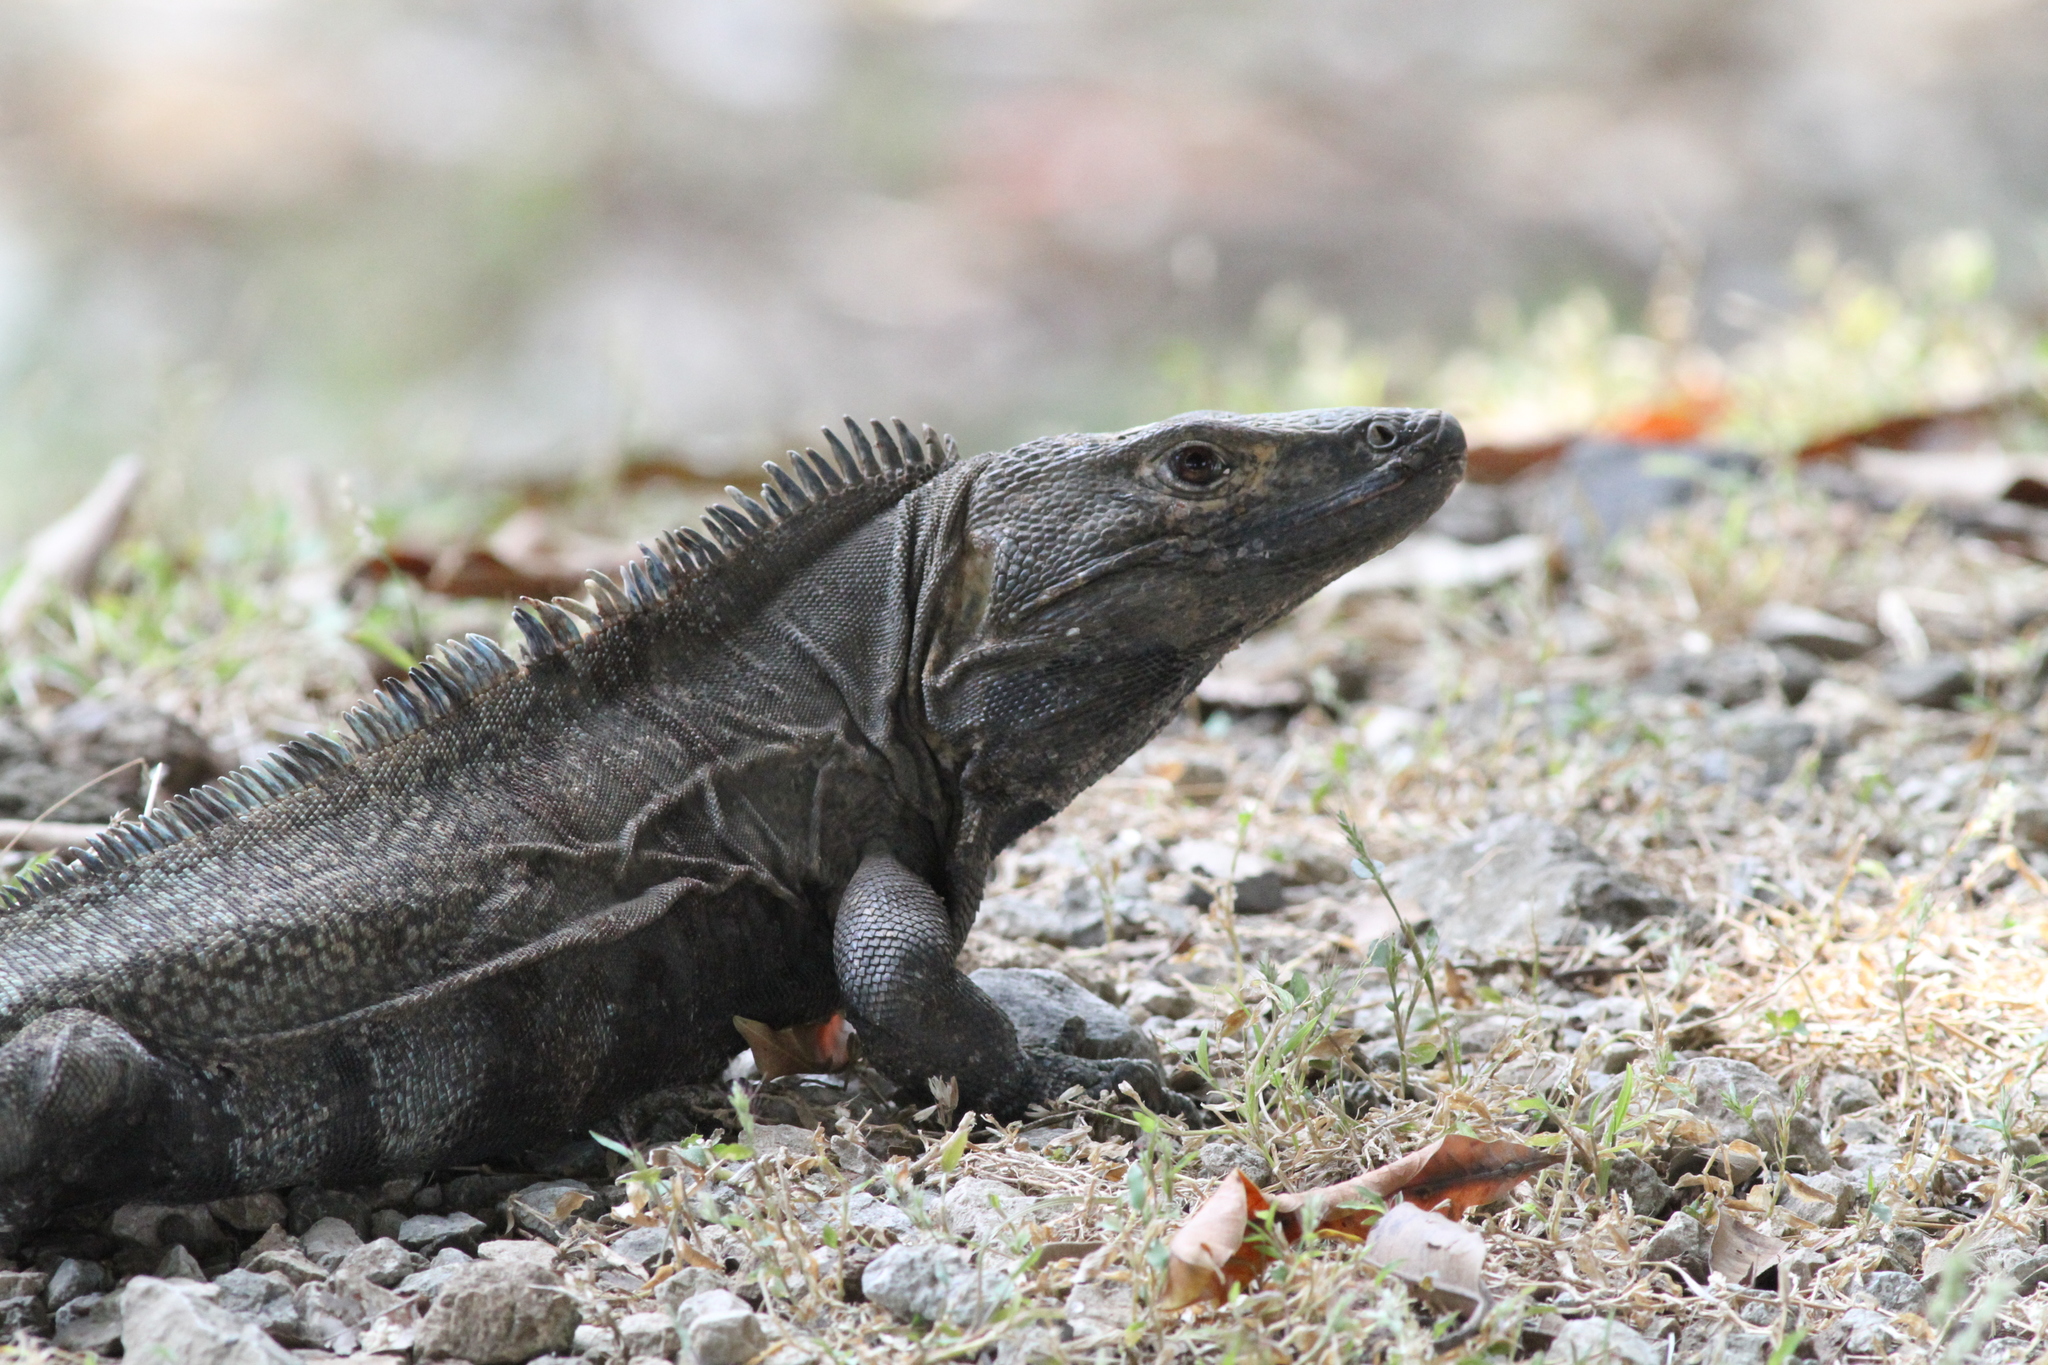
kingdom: Animalia
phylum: Chordata
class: Squamata
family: Iguanidae
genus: Ctenosaura
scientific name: Ctenosaura similis
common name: Black spiny-tailed iguana
